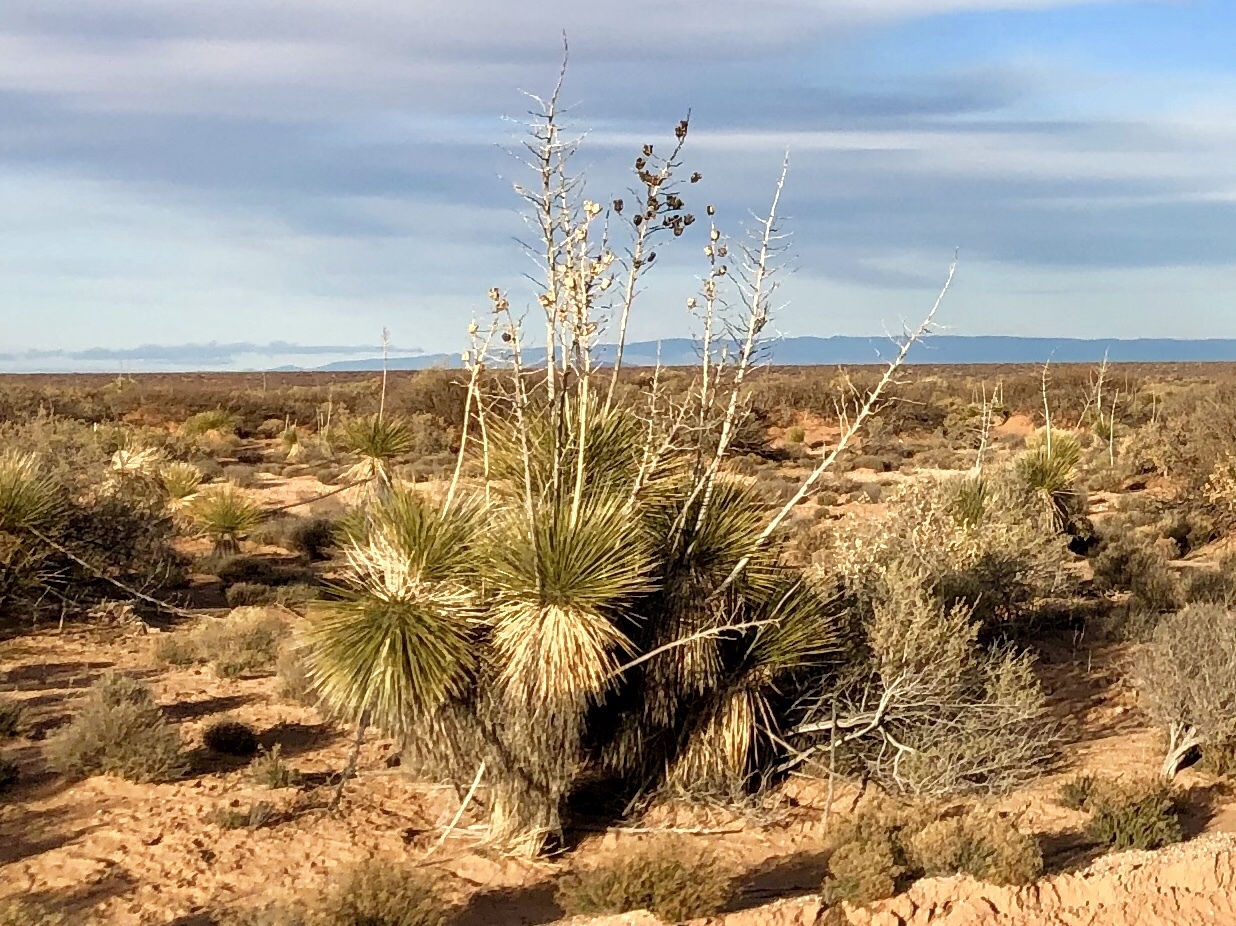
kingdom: Plantae
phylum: Tracheophyta
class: Liliopsida
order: Asparagales
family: Asparagaceae
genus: Yucca
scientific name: Yucca elata
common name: Palmella
